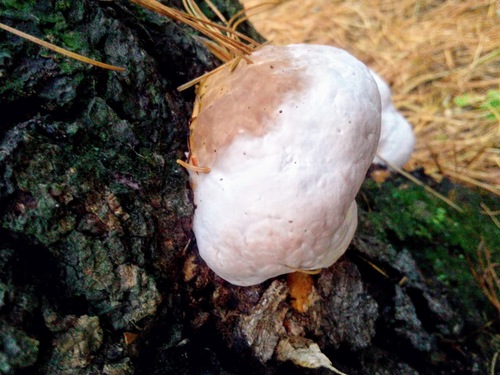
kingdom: Fungi
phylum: Basidiomycota
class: Agaricomycetes
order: Polyporales
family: Fomitopsidaceae
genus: Fomitopsis
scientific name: Fomitopsis pinicola
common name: Red-belted bracket
